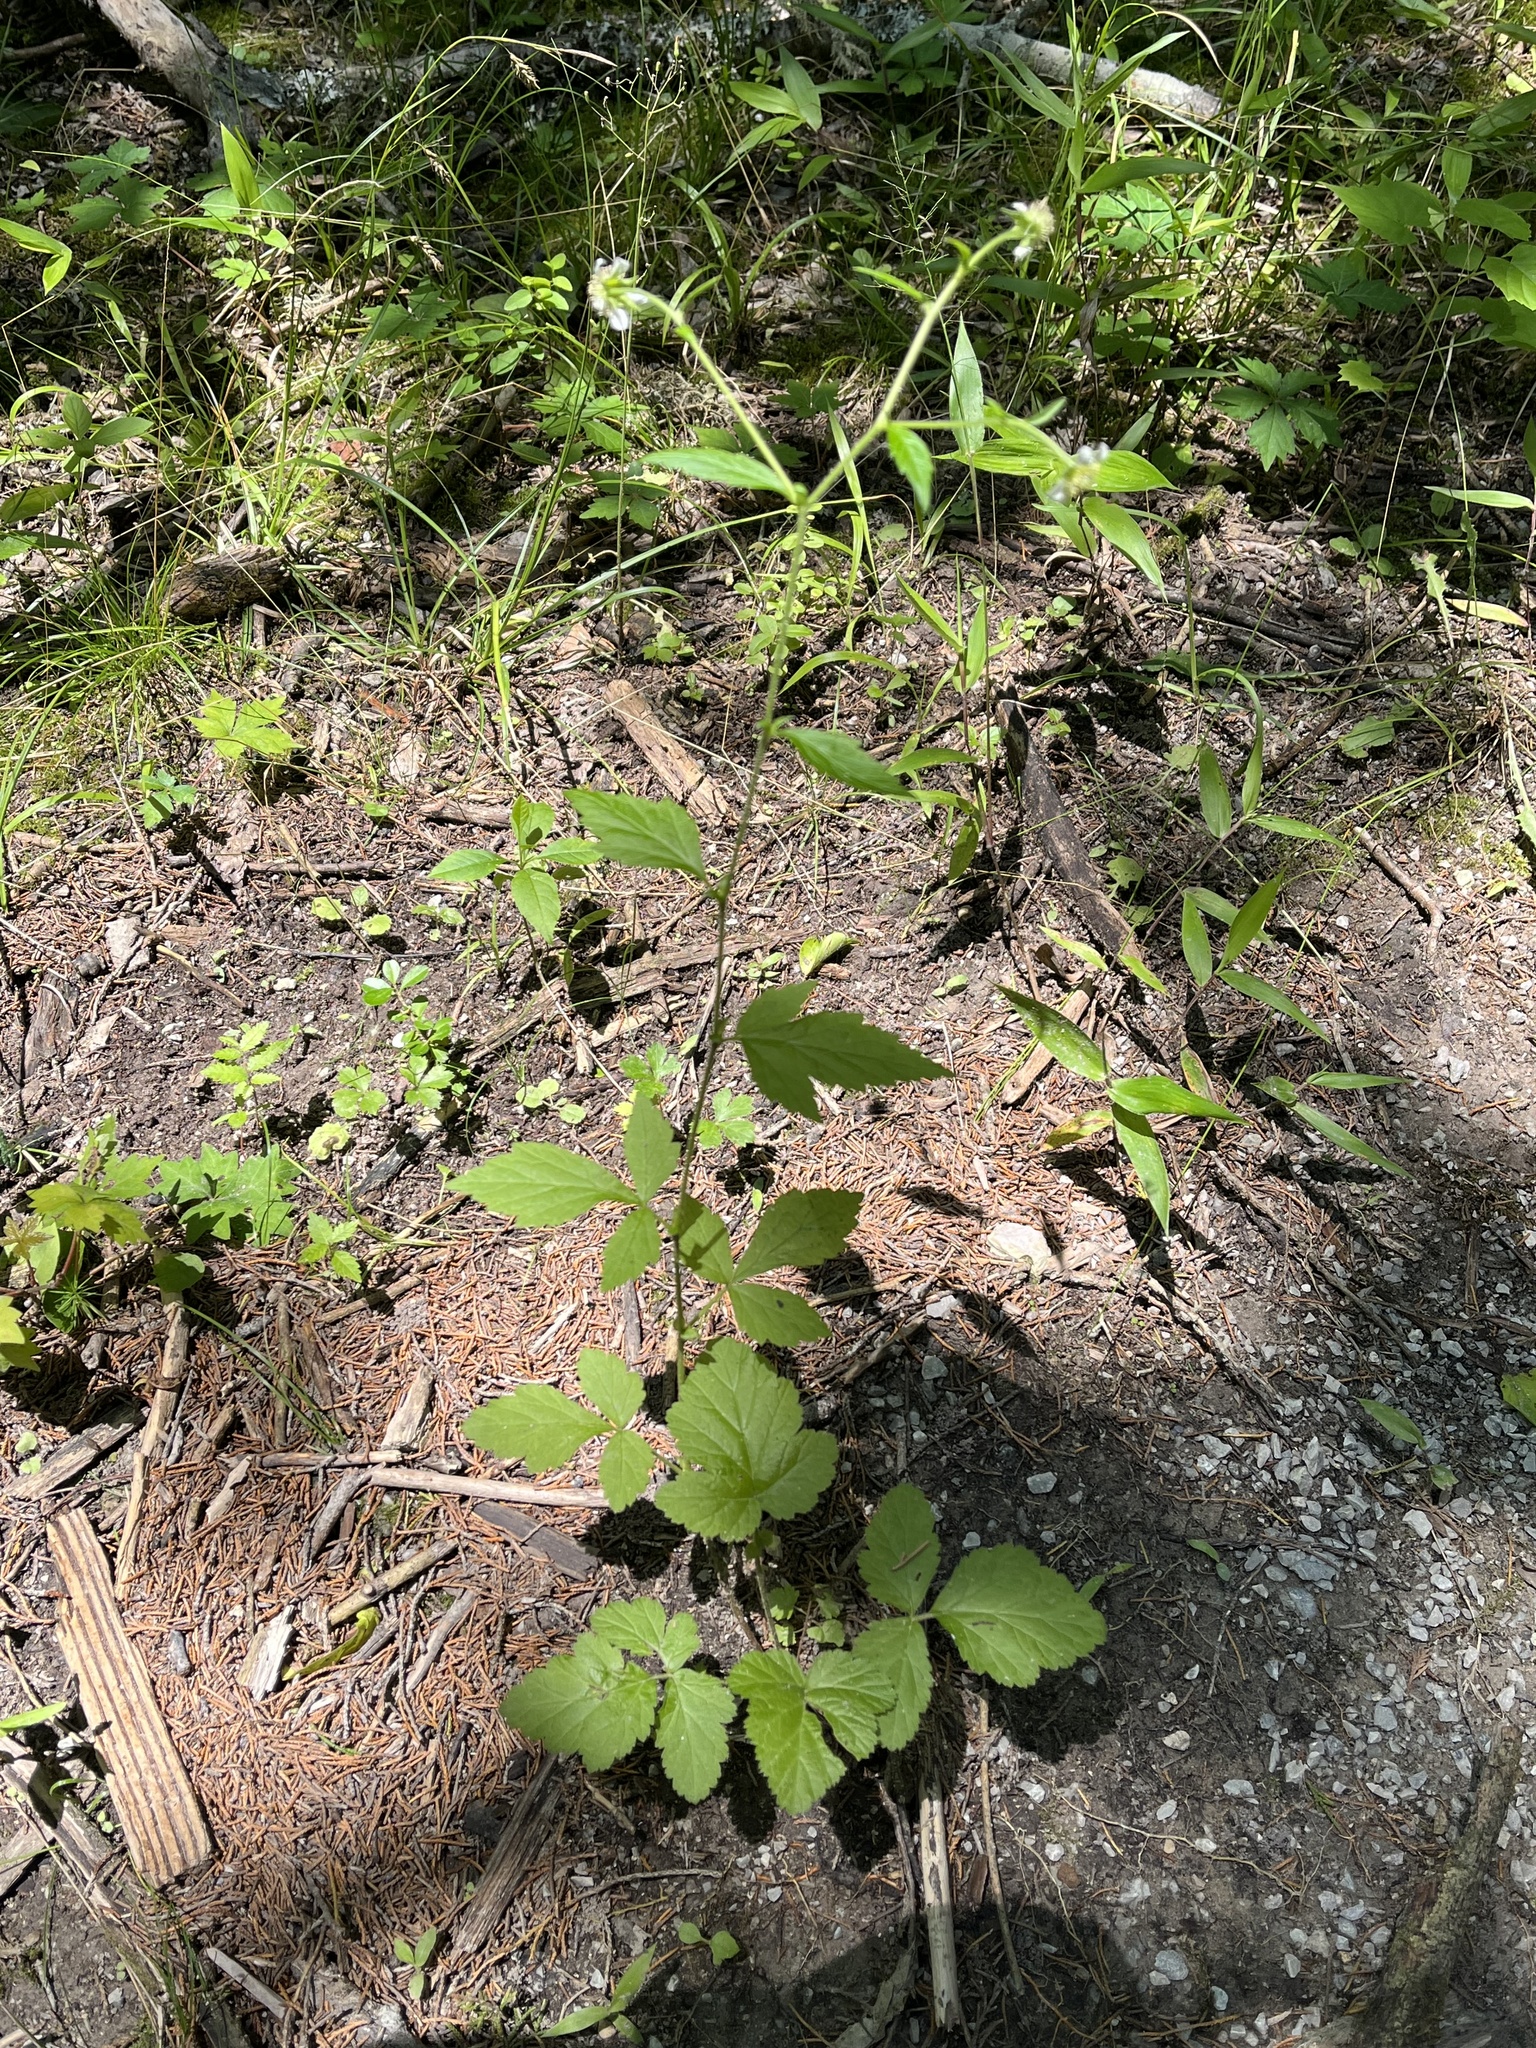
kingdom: Plantae
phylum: Tracheophyta
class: Magnoliopsida
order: Rosales
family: Rosaceae
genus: Geum
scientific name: Geum canadense
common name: White avens
